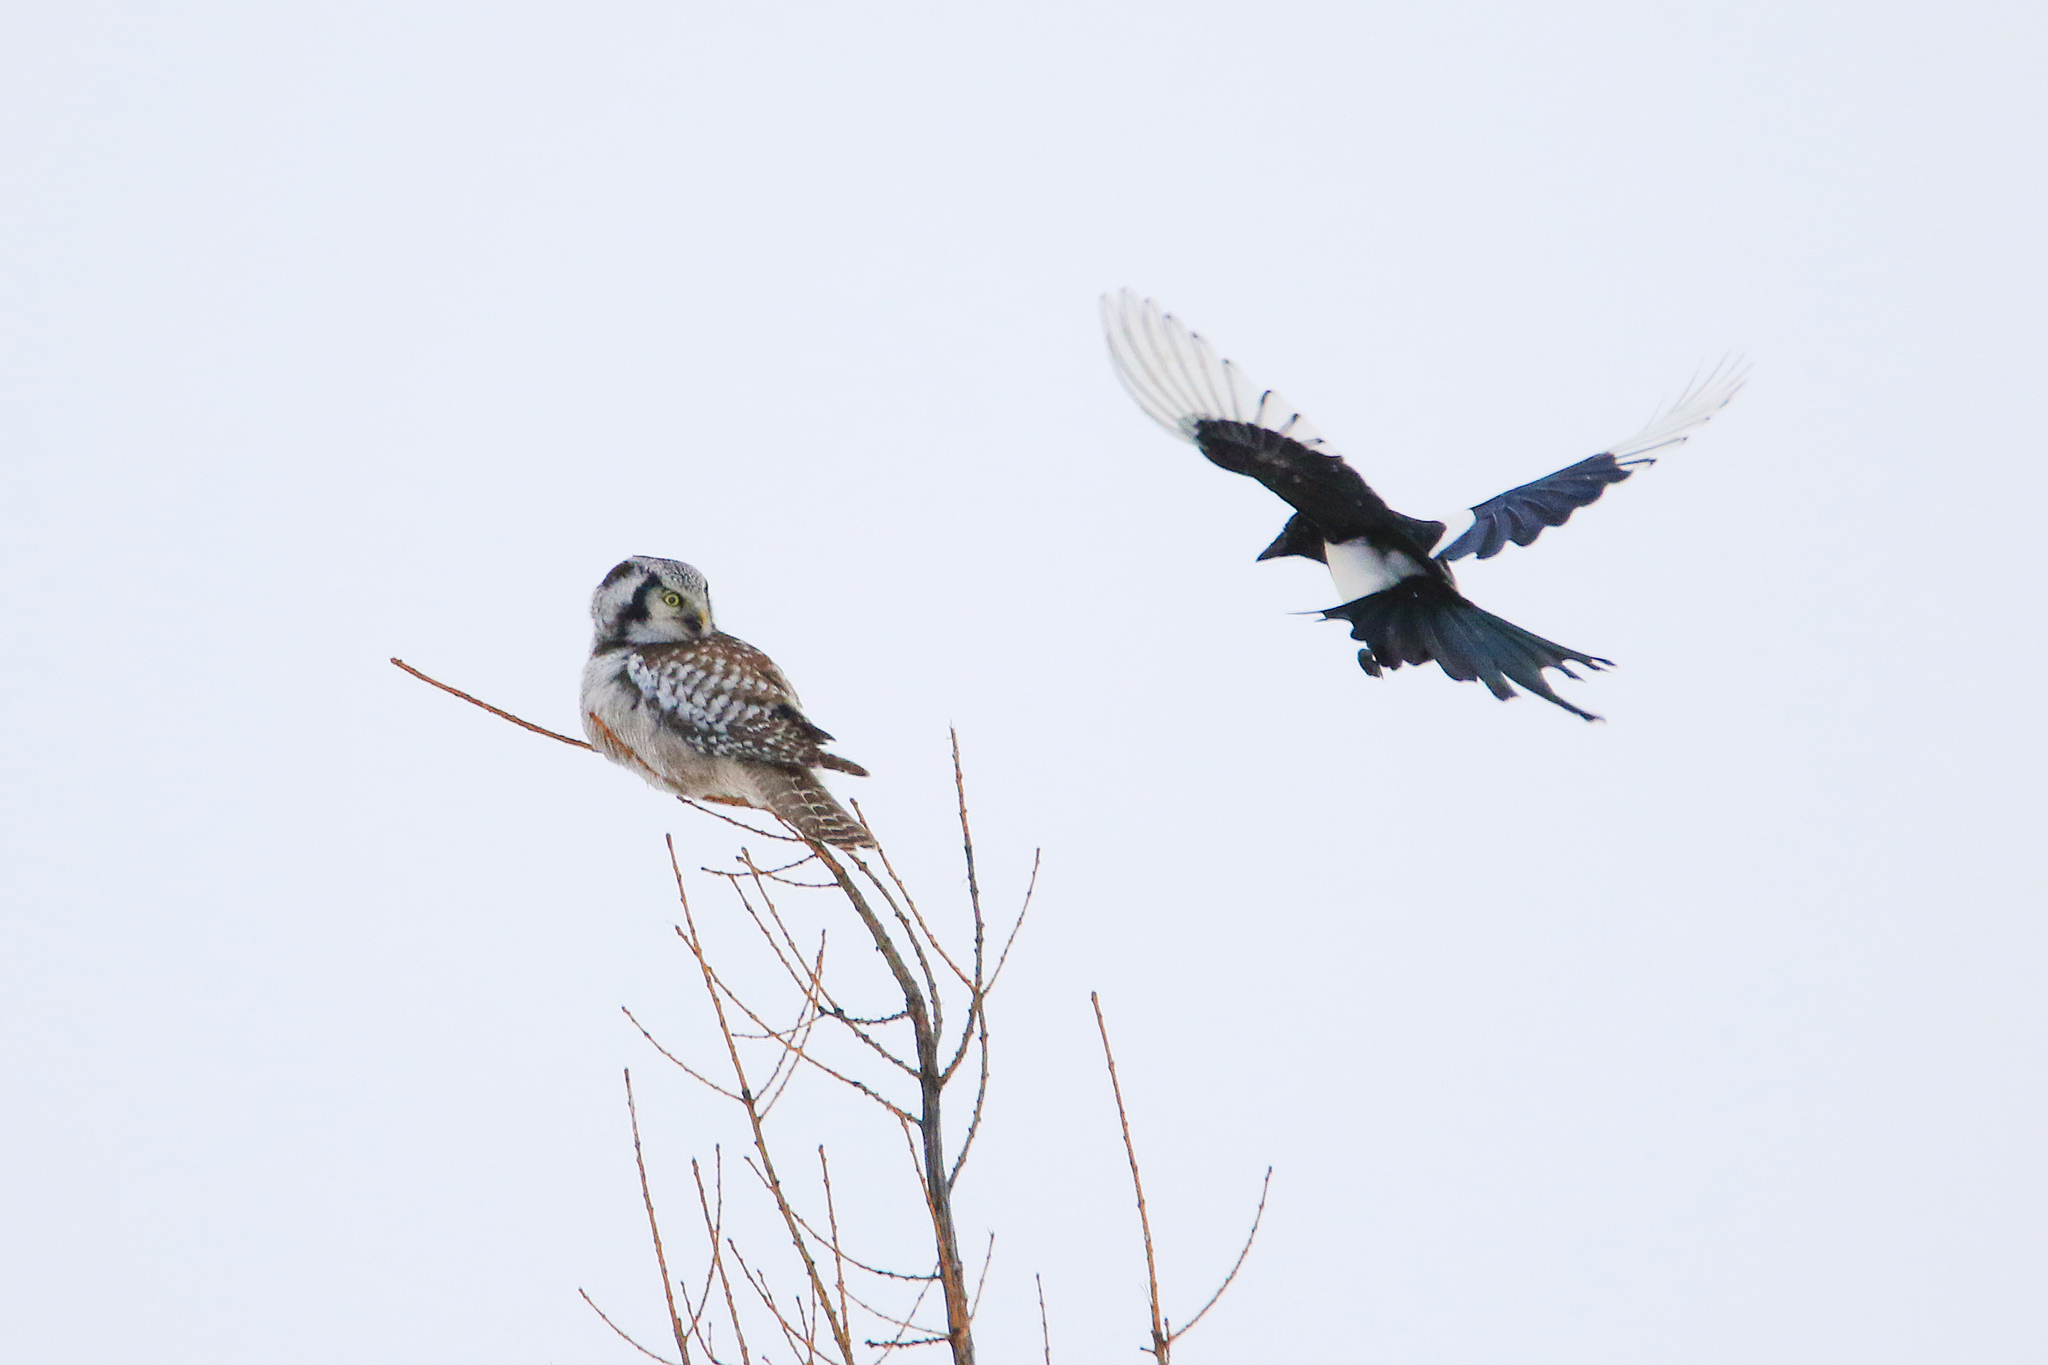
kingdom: Animalia
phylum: Chordata
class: Aves
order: Strigiformes
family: Strigidae
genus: Surnia
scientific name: Surnia ulula
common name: Northern hawk-owl
